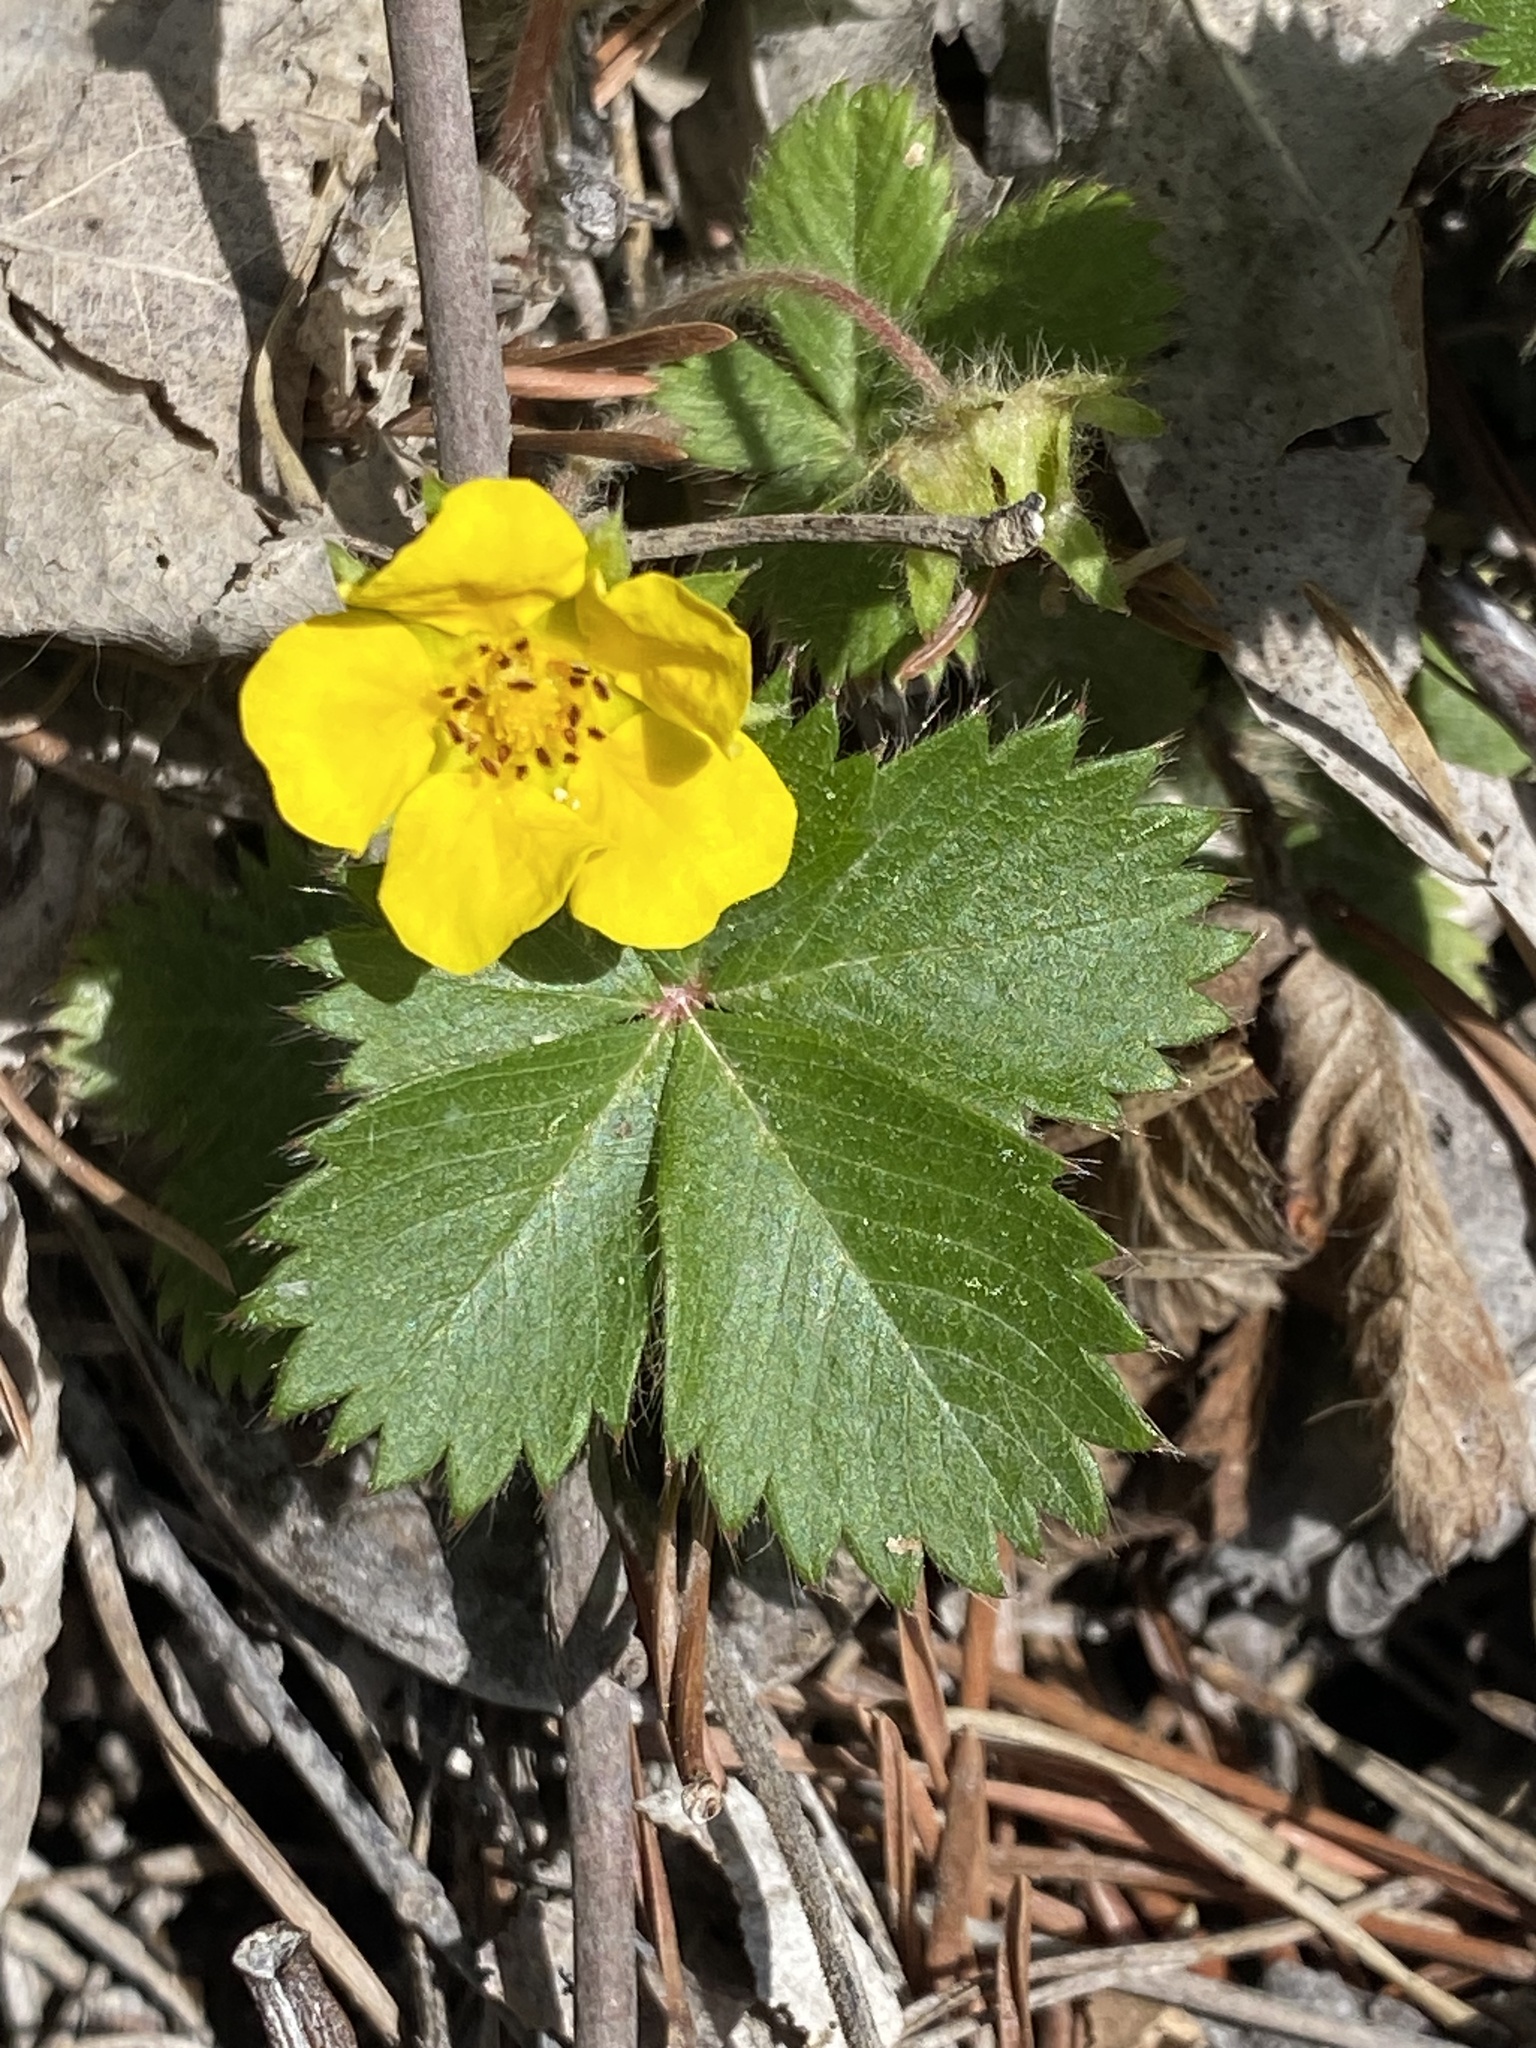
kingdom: Plantae
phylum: Tracheophyta
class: Magnoliopsida
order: Rosales
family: Rosaceae
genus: Potentilla
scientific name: Potentilla canadensis
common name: Canada cinquefoil
